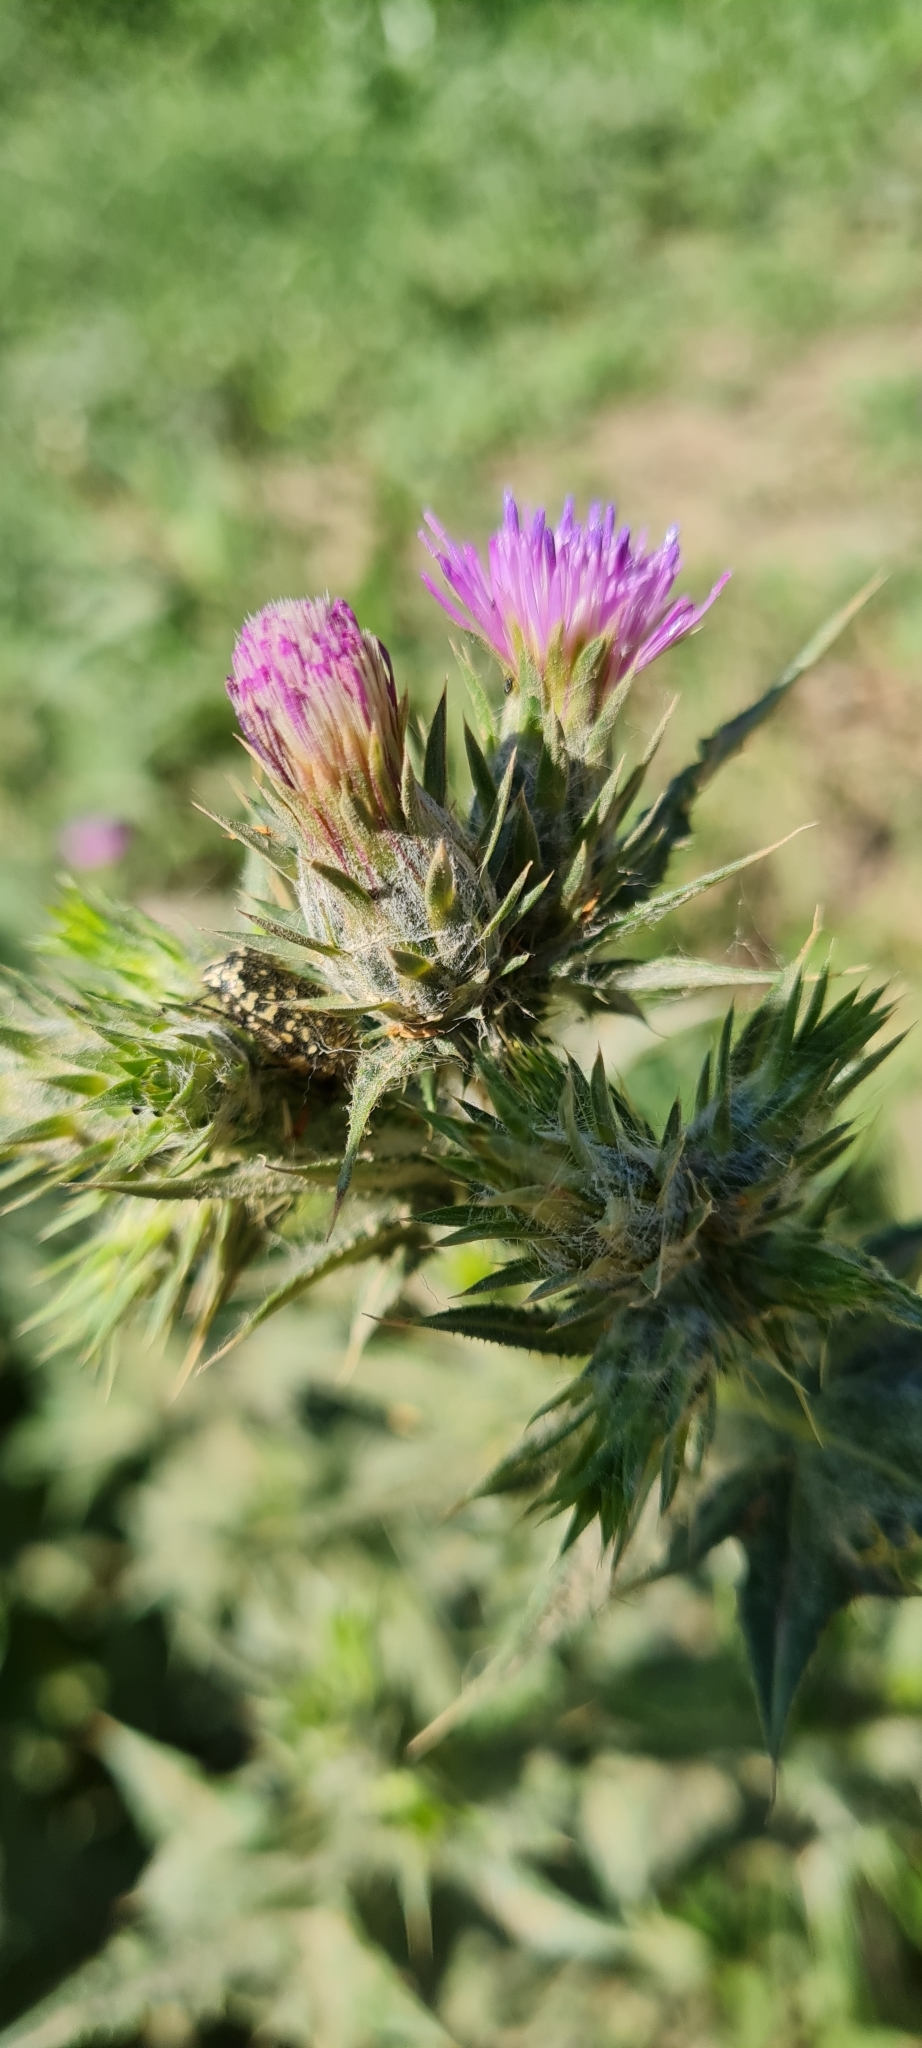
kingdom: Animalia
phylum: Arthropoda
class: Insecta
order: Coleoptera
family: Scarabaeidae
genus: Oxythyrea
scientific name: Oxythyrea funesta
